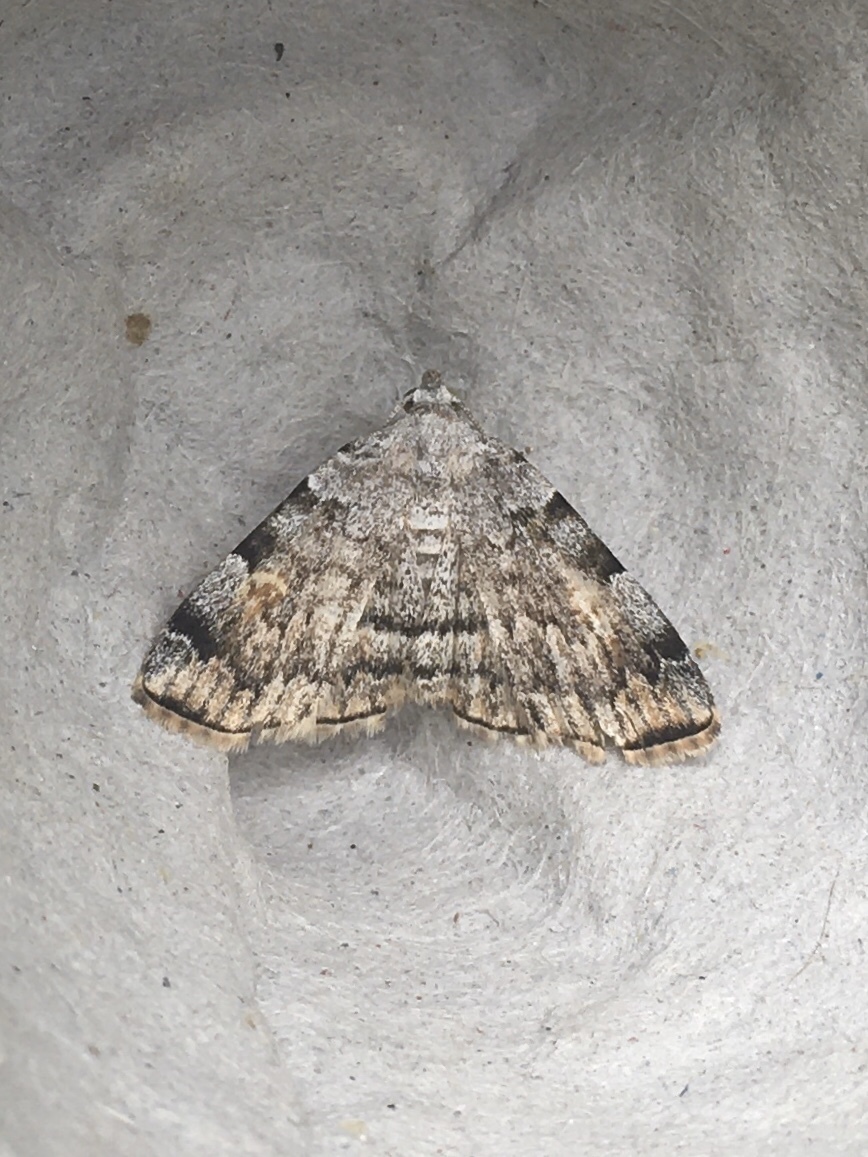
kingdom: Animalia
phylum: Arthropoda
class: Insecta
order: Lepidoptera
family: Erebidae
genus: Idia
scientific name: Idia americalis
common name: American idia moth
